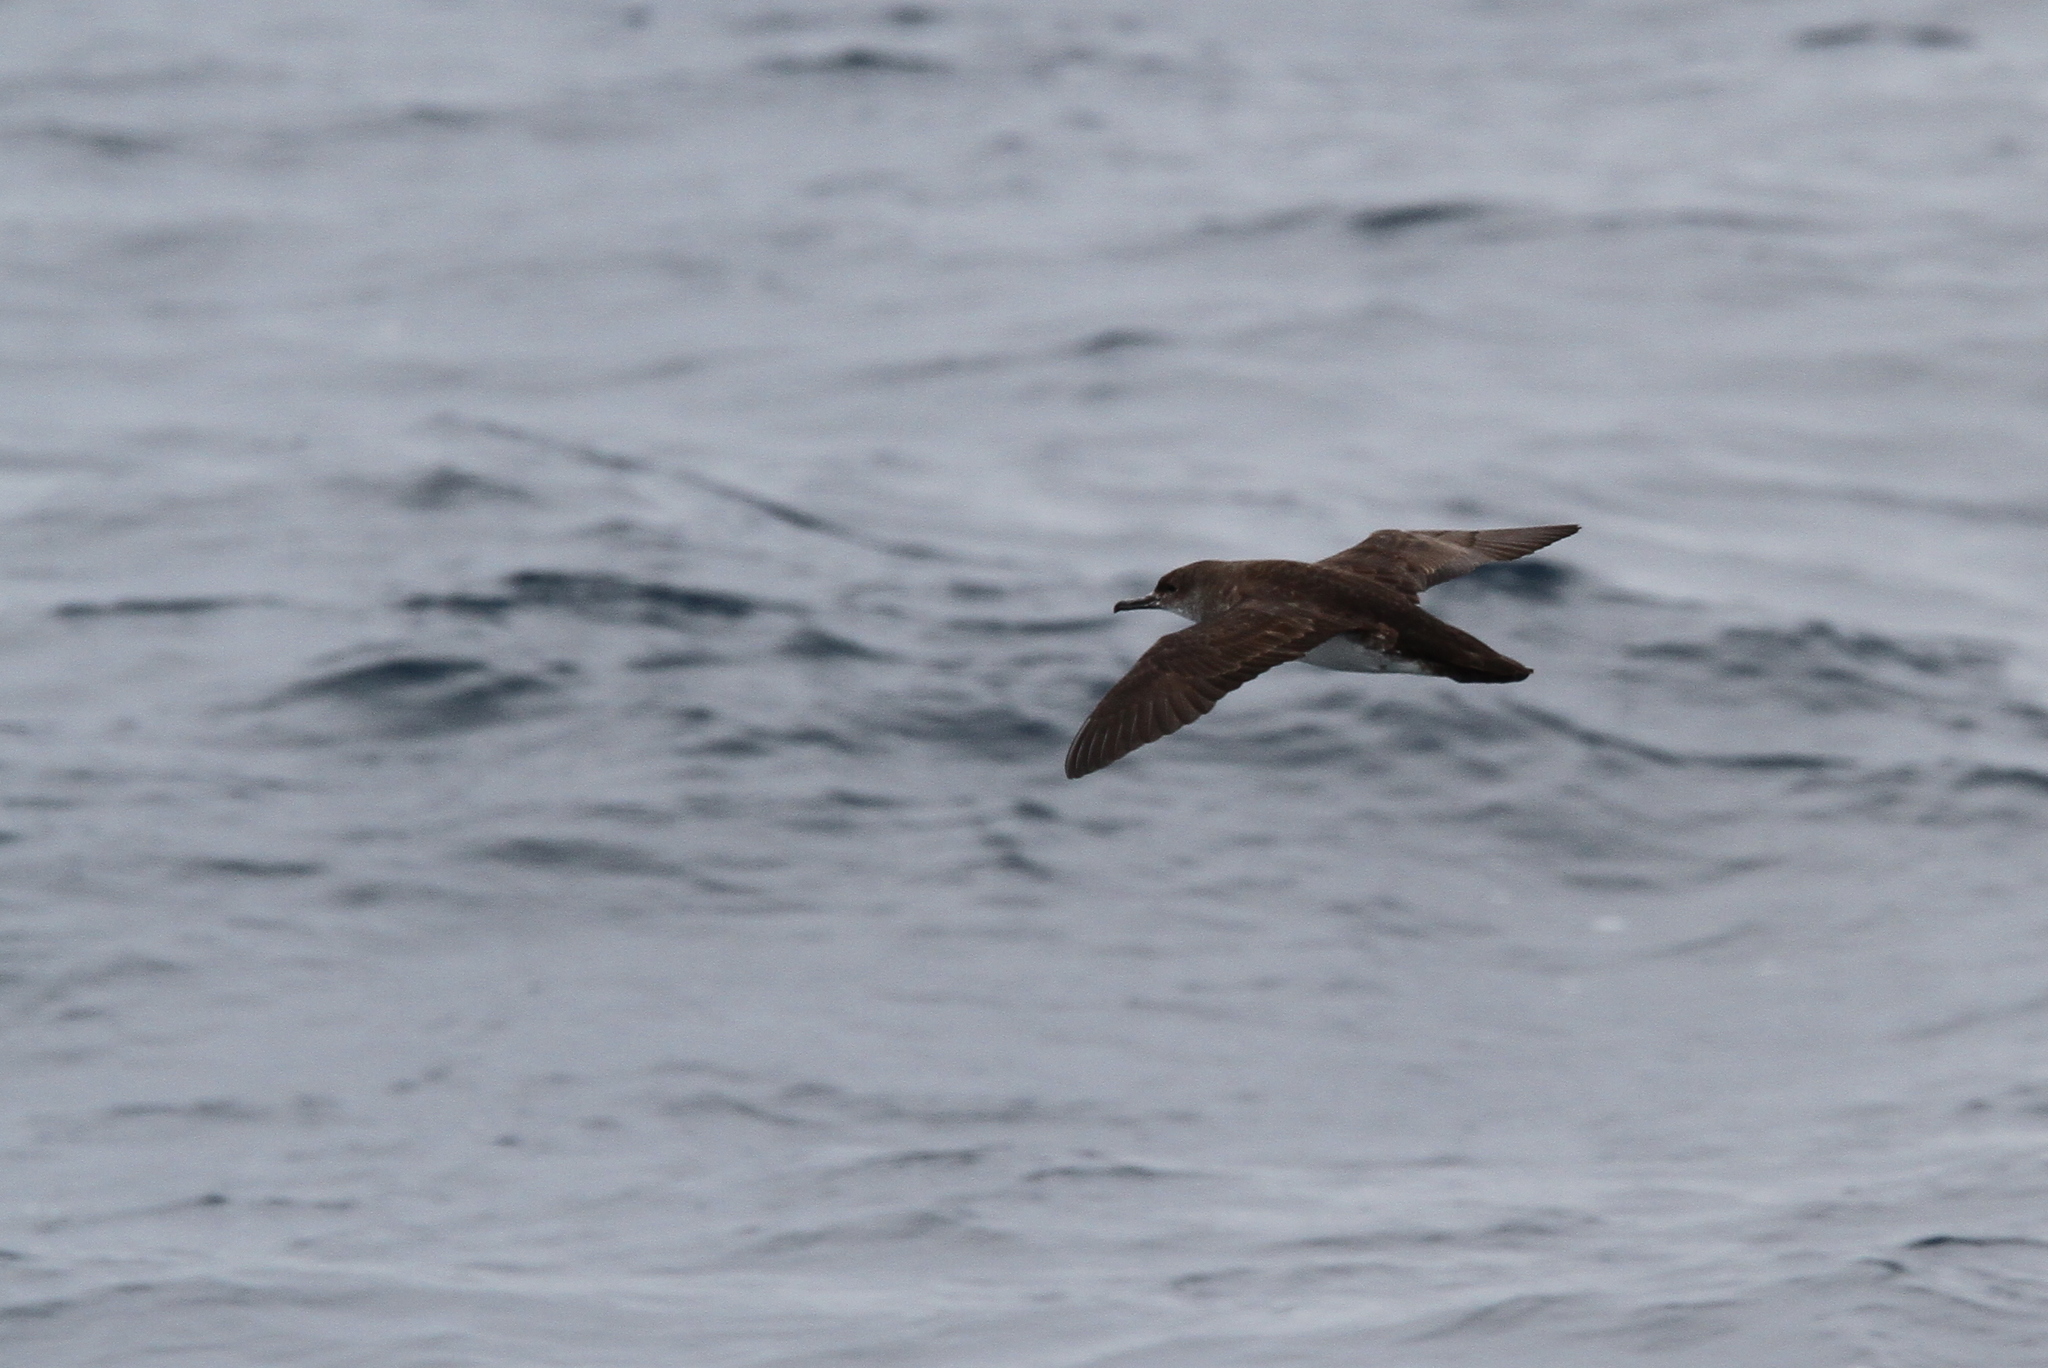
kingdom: Animalia
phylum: Chordata
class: Aves
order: Procellariiformes
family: Procellariidae
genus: Puffinus
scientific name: Puffinus opisthomelas
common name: Black-vented shearwater
